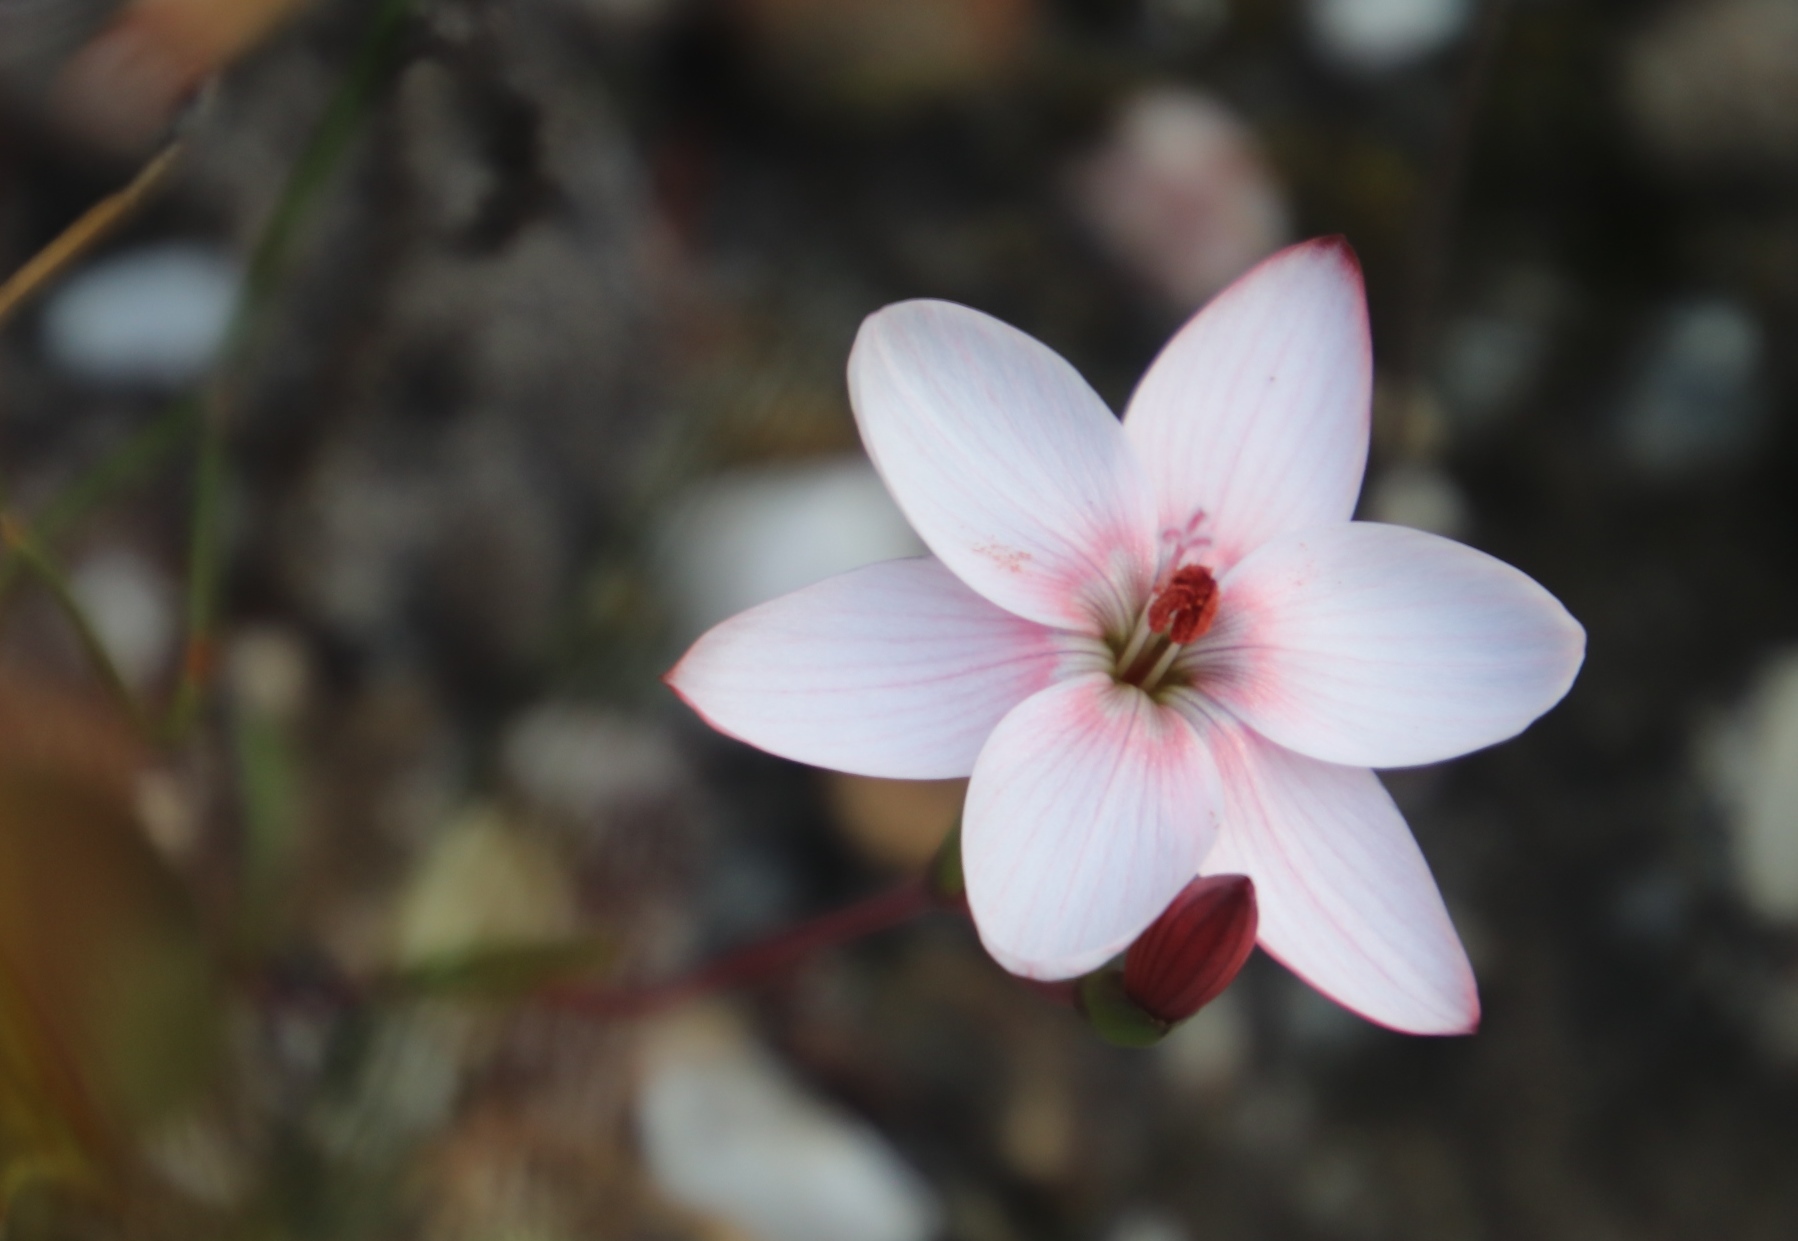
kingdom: Plantae
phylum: Tracheophyta
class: Liliopsida
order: Asparagales
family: Iridaceae
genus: Geissorhiza
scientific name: Geissorhiza ovata
